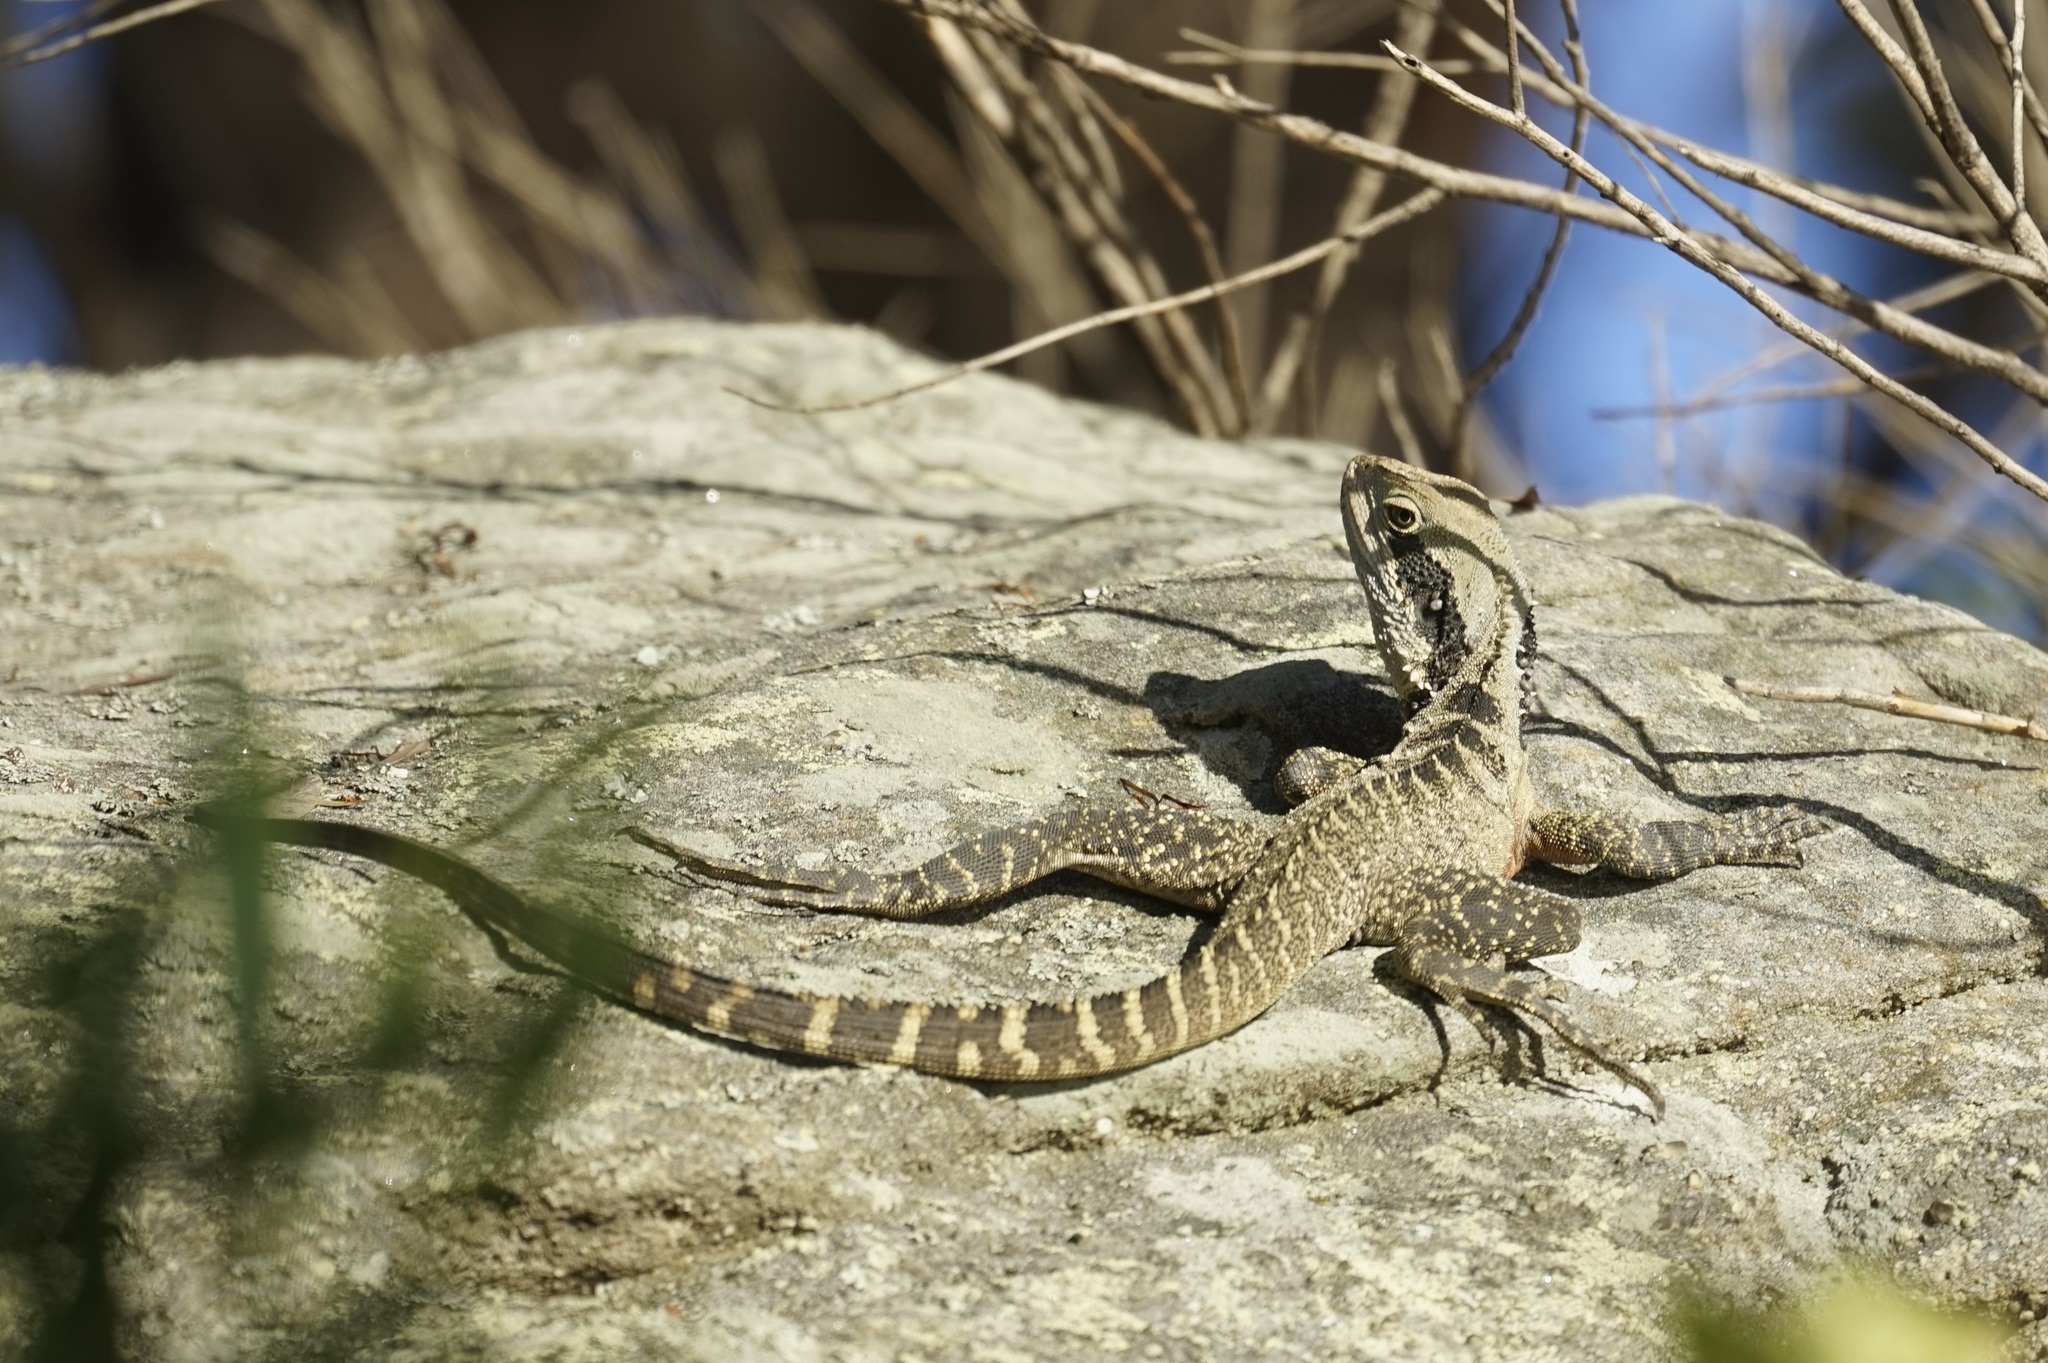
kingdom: Animalia
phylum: Chordata
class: Squamata
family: Agamidae
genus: Intellagama
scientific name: Intellagama lesueurii
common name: Eastern water dragon
